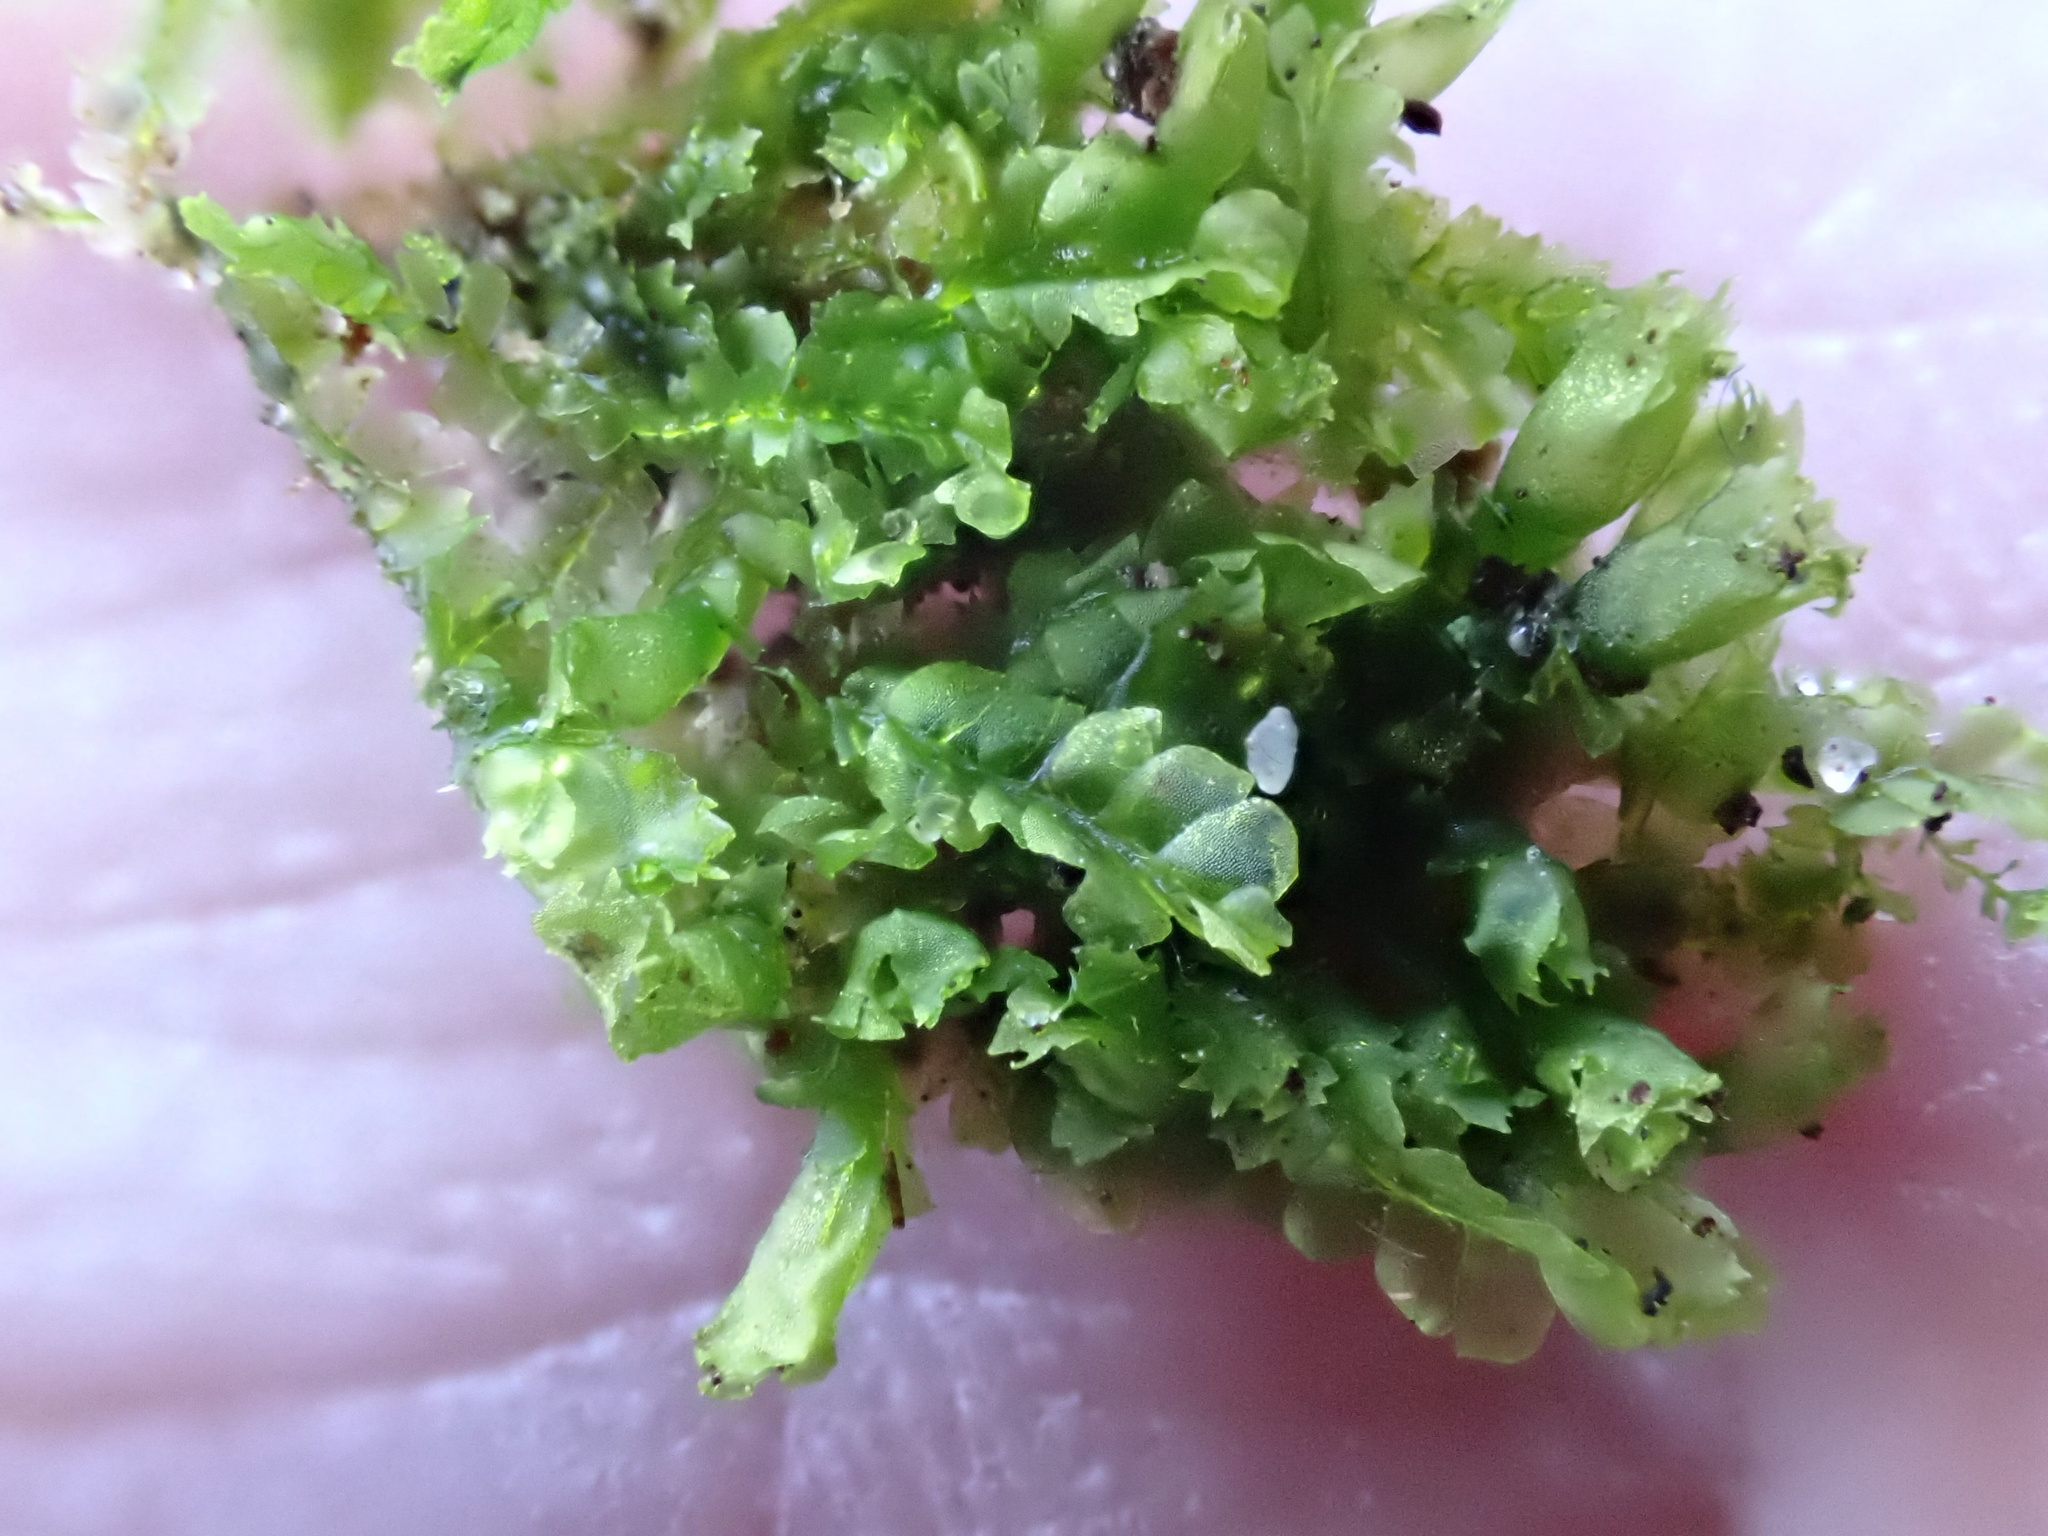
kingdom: Plantae
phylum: Marchantiophyta
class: Jungermanniopsida
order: Jungermanniales
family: Lophocoleaceae
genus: Lophocolea
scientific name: Lophocolea heterophylla
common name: Variable-leaved crestwort
